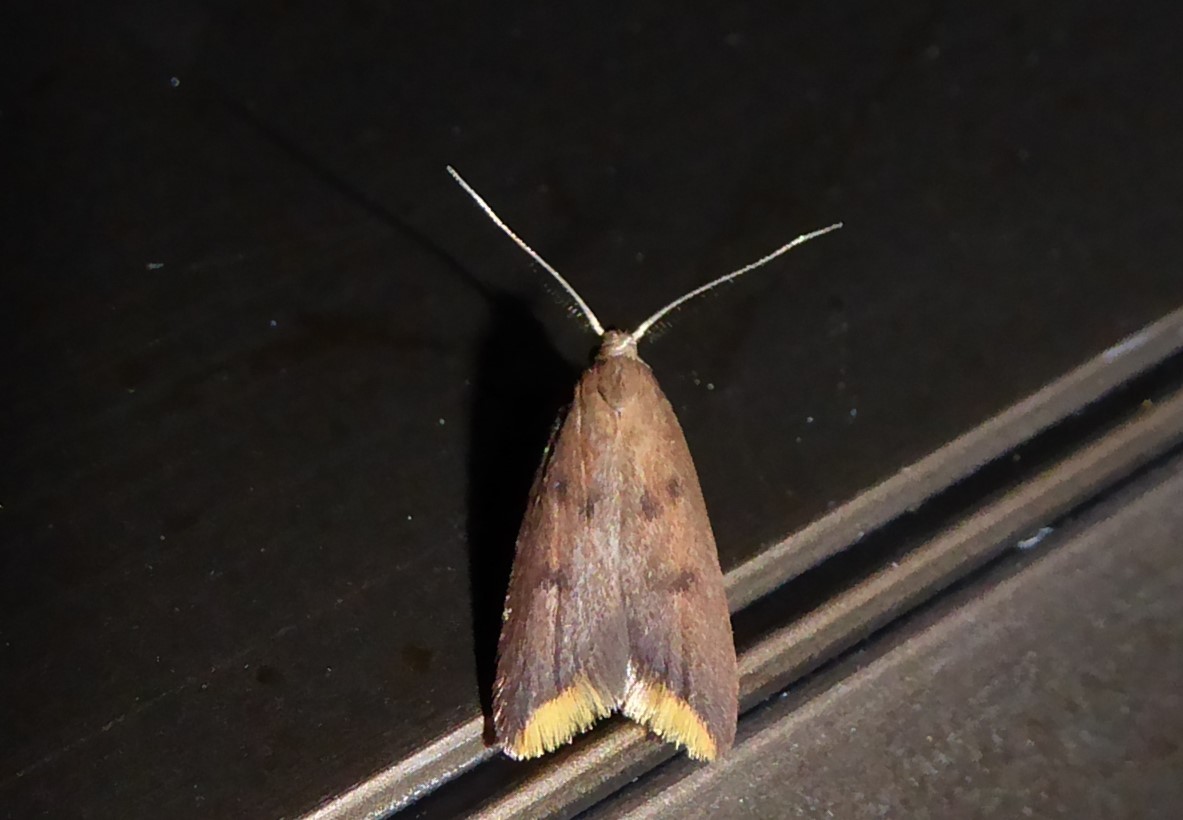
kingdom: Animalia
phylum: Arthropoda
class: Insecta
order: Lepidoptera
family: Oecophoridae
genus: Tachystola
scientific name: Tachystola acroxantha
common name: Ruddy streak
